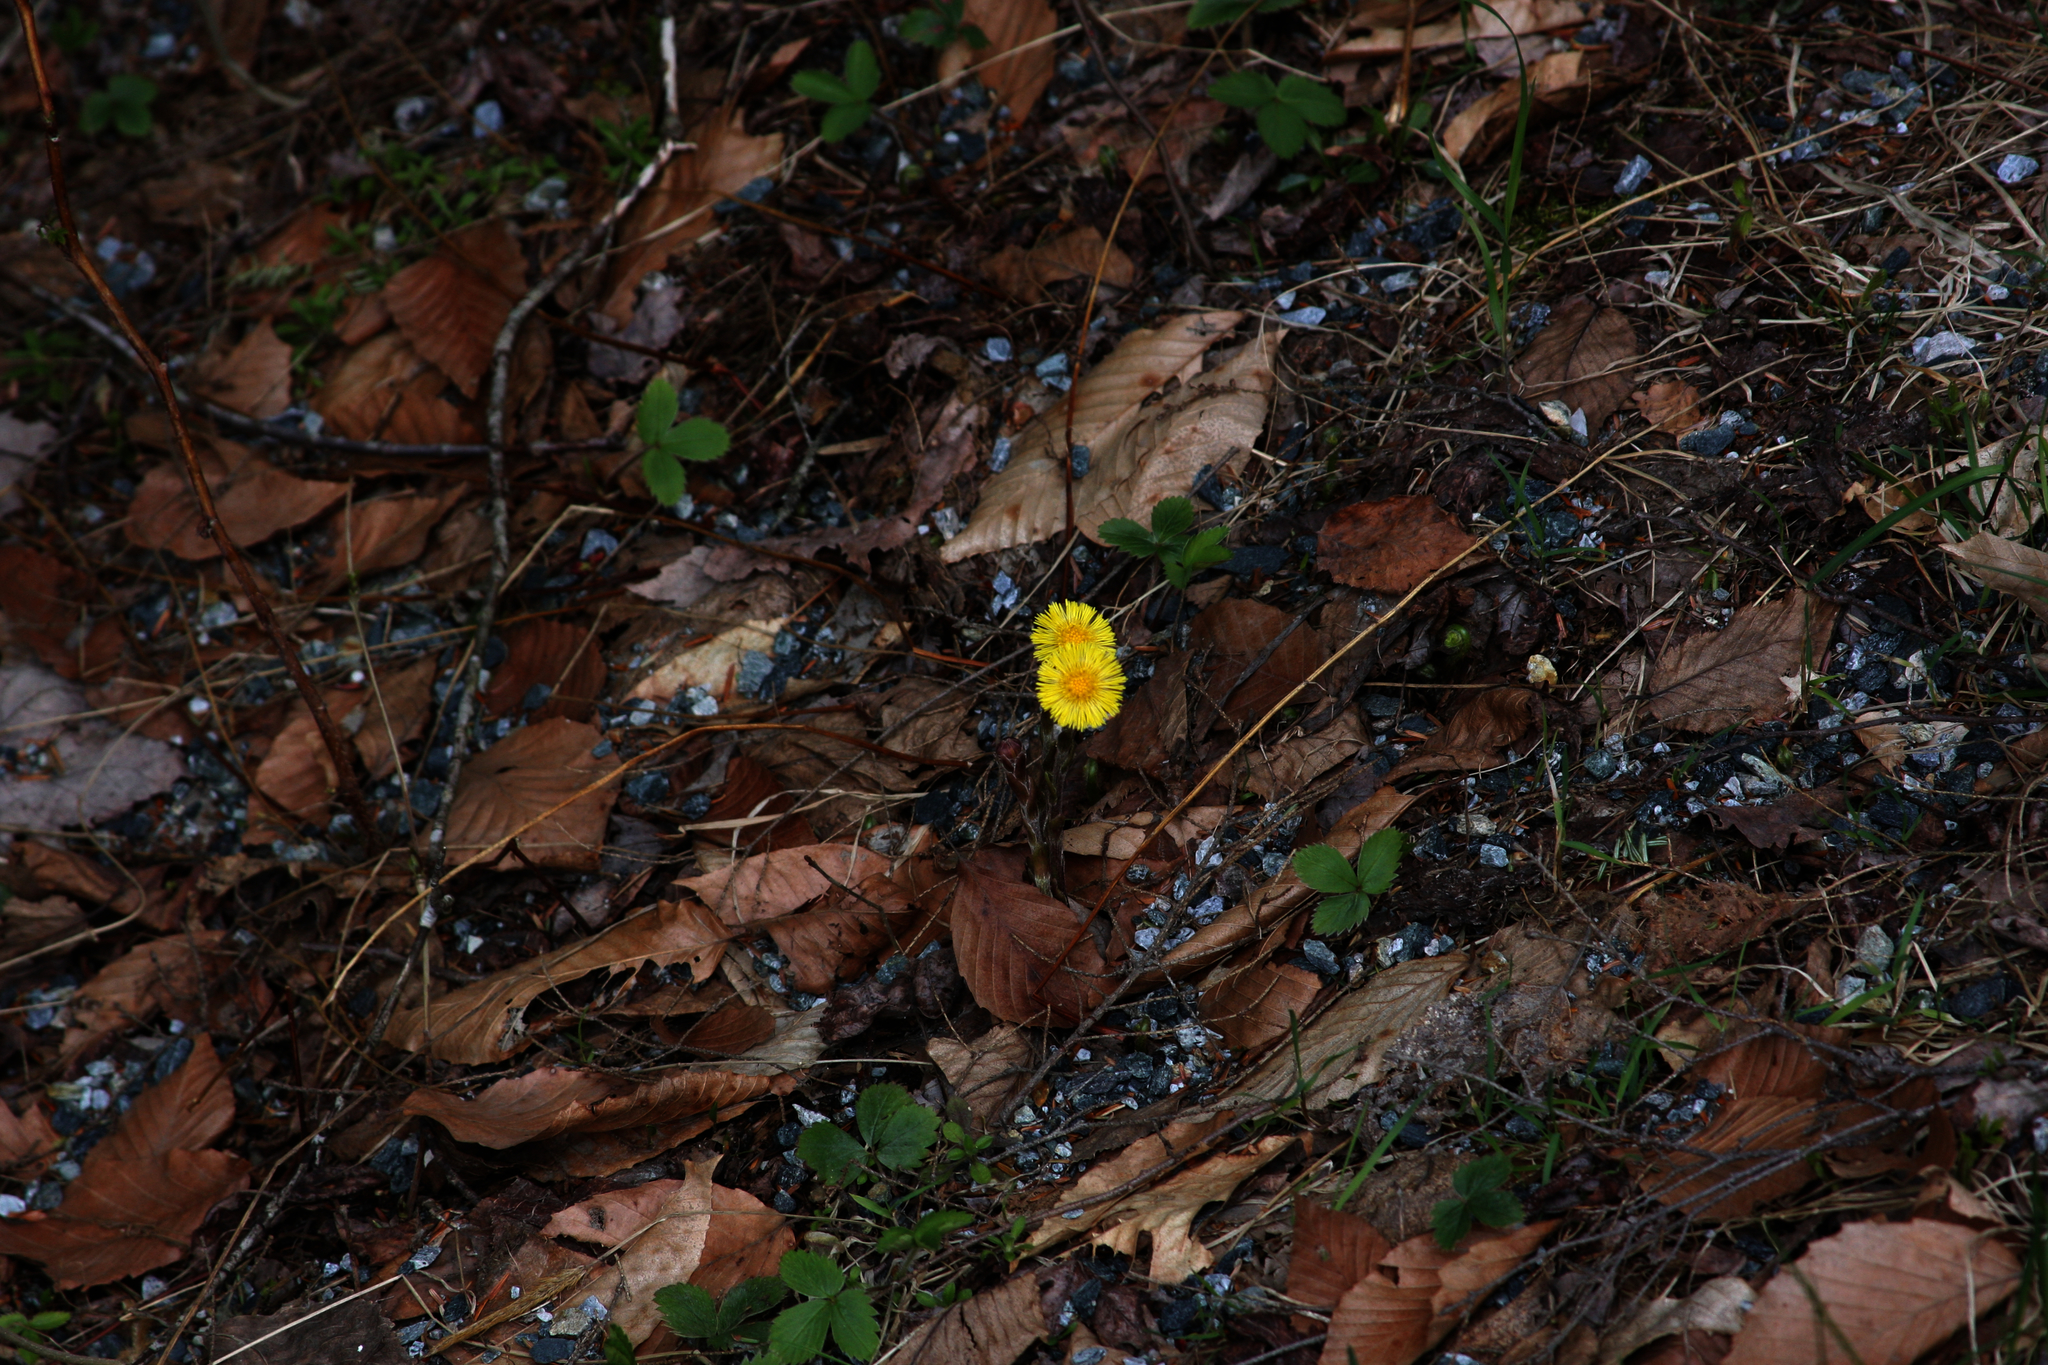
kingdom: Plantae
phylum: Tracheophyta
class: Magnoliopsida
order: Asterales
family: Asteraceae
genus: Tussilago
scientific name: Tussilago farfara
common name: Coltsfoot
